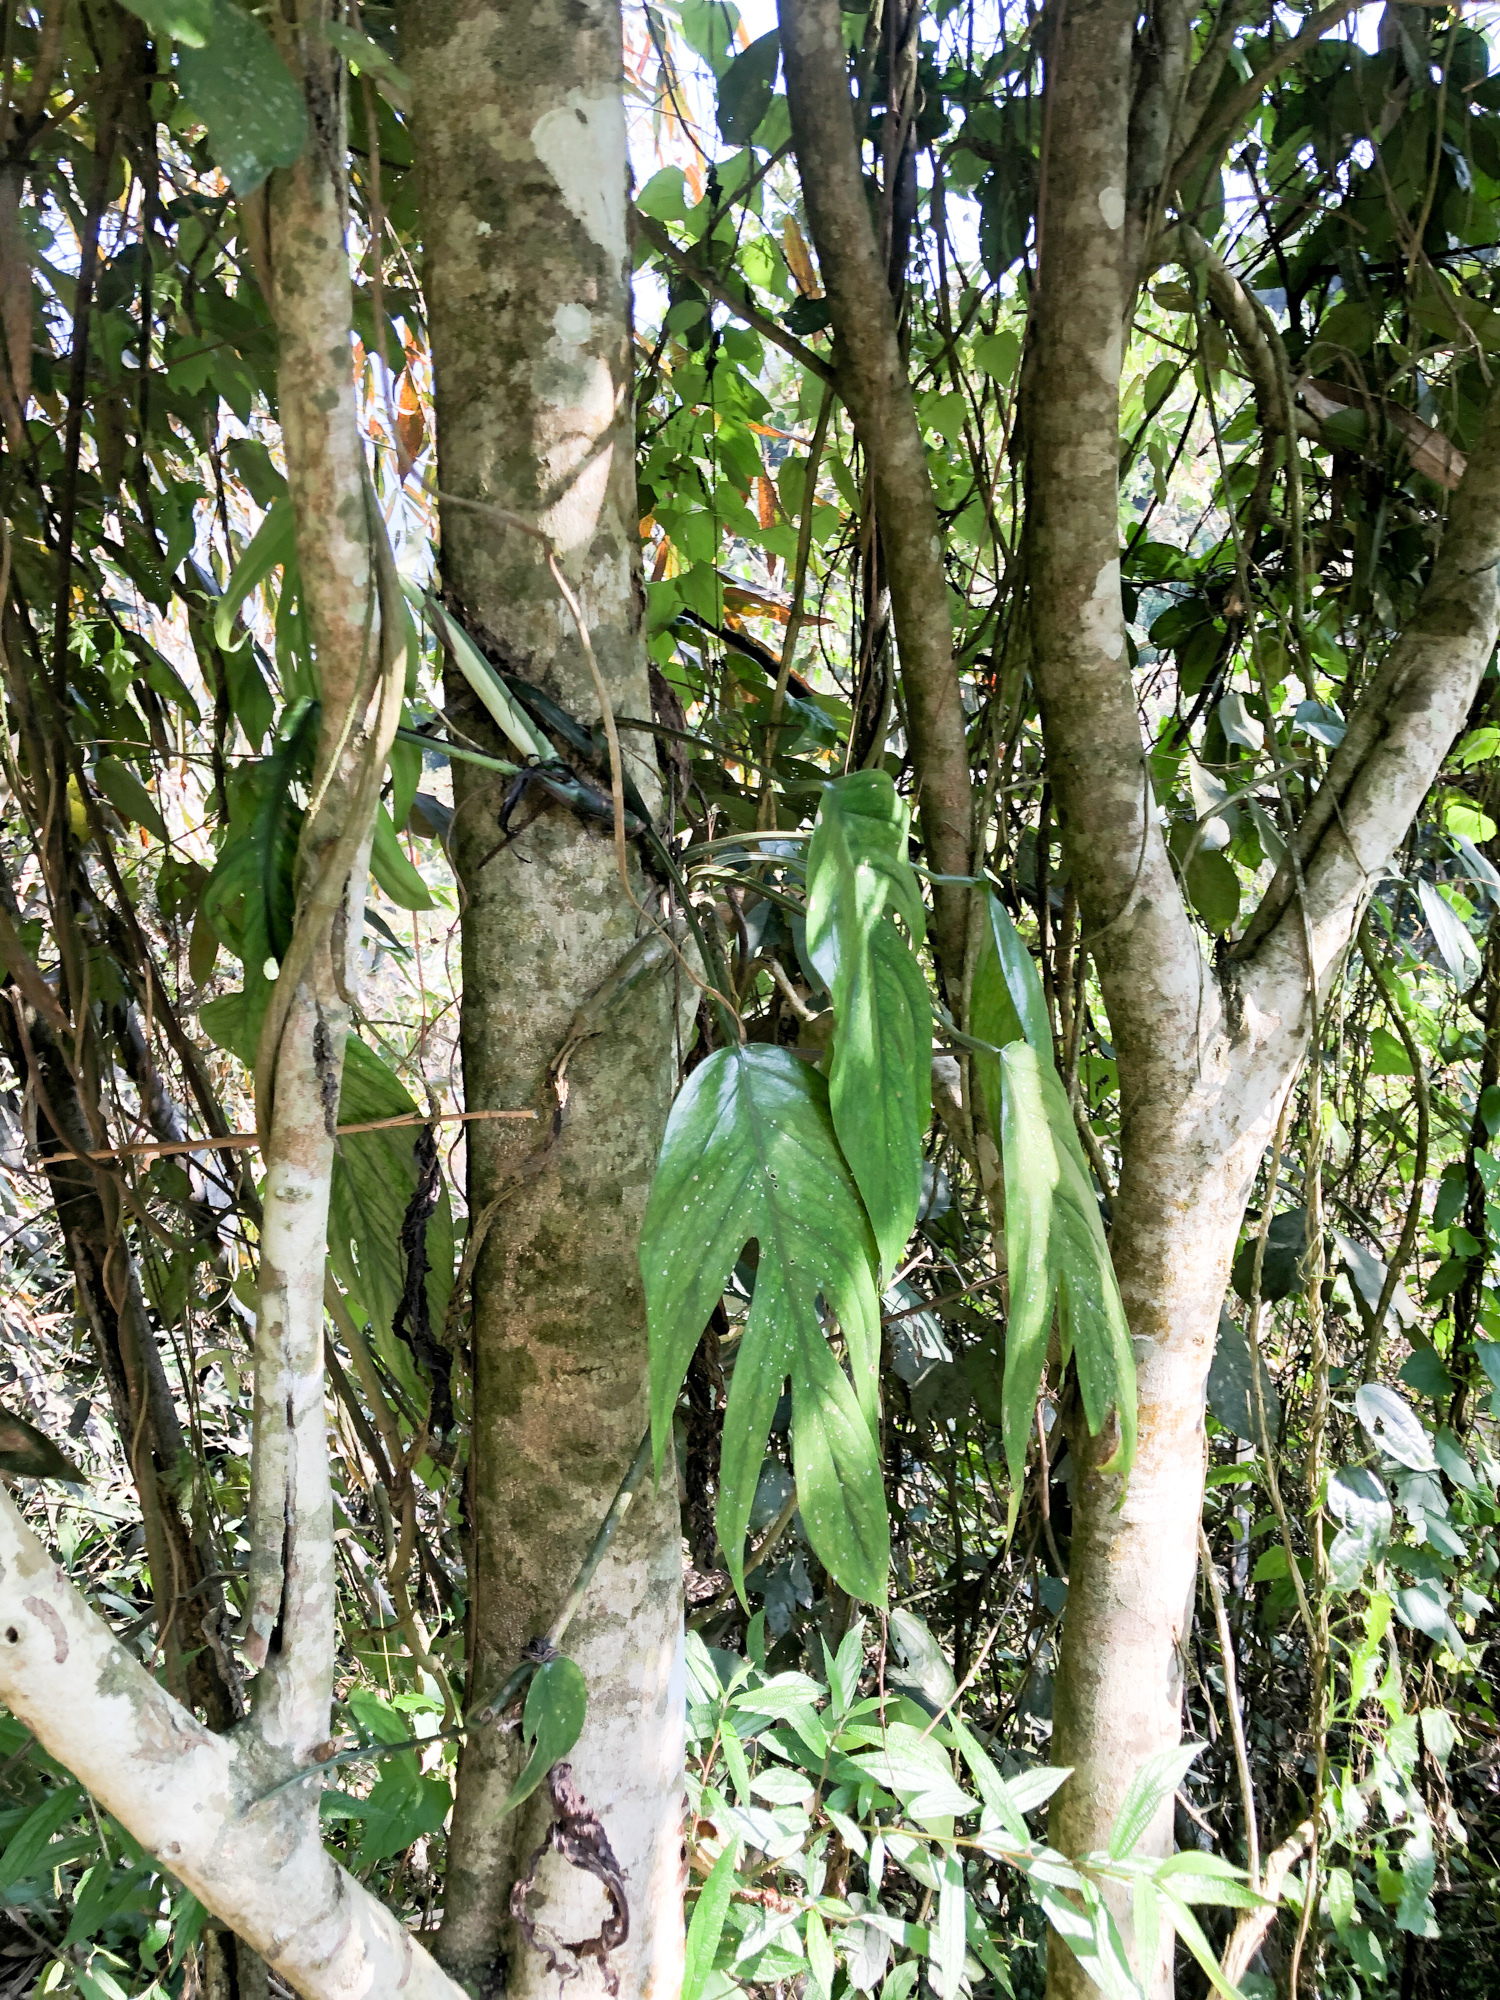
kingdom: Plantae
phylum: Tracheophyta
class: Liliopsida
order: Alismatales
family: Araceae
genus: Epipremnum
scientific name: Epipremnum pinnatum
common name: Centipede tongavine
